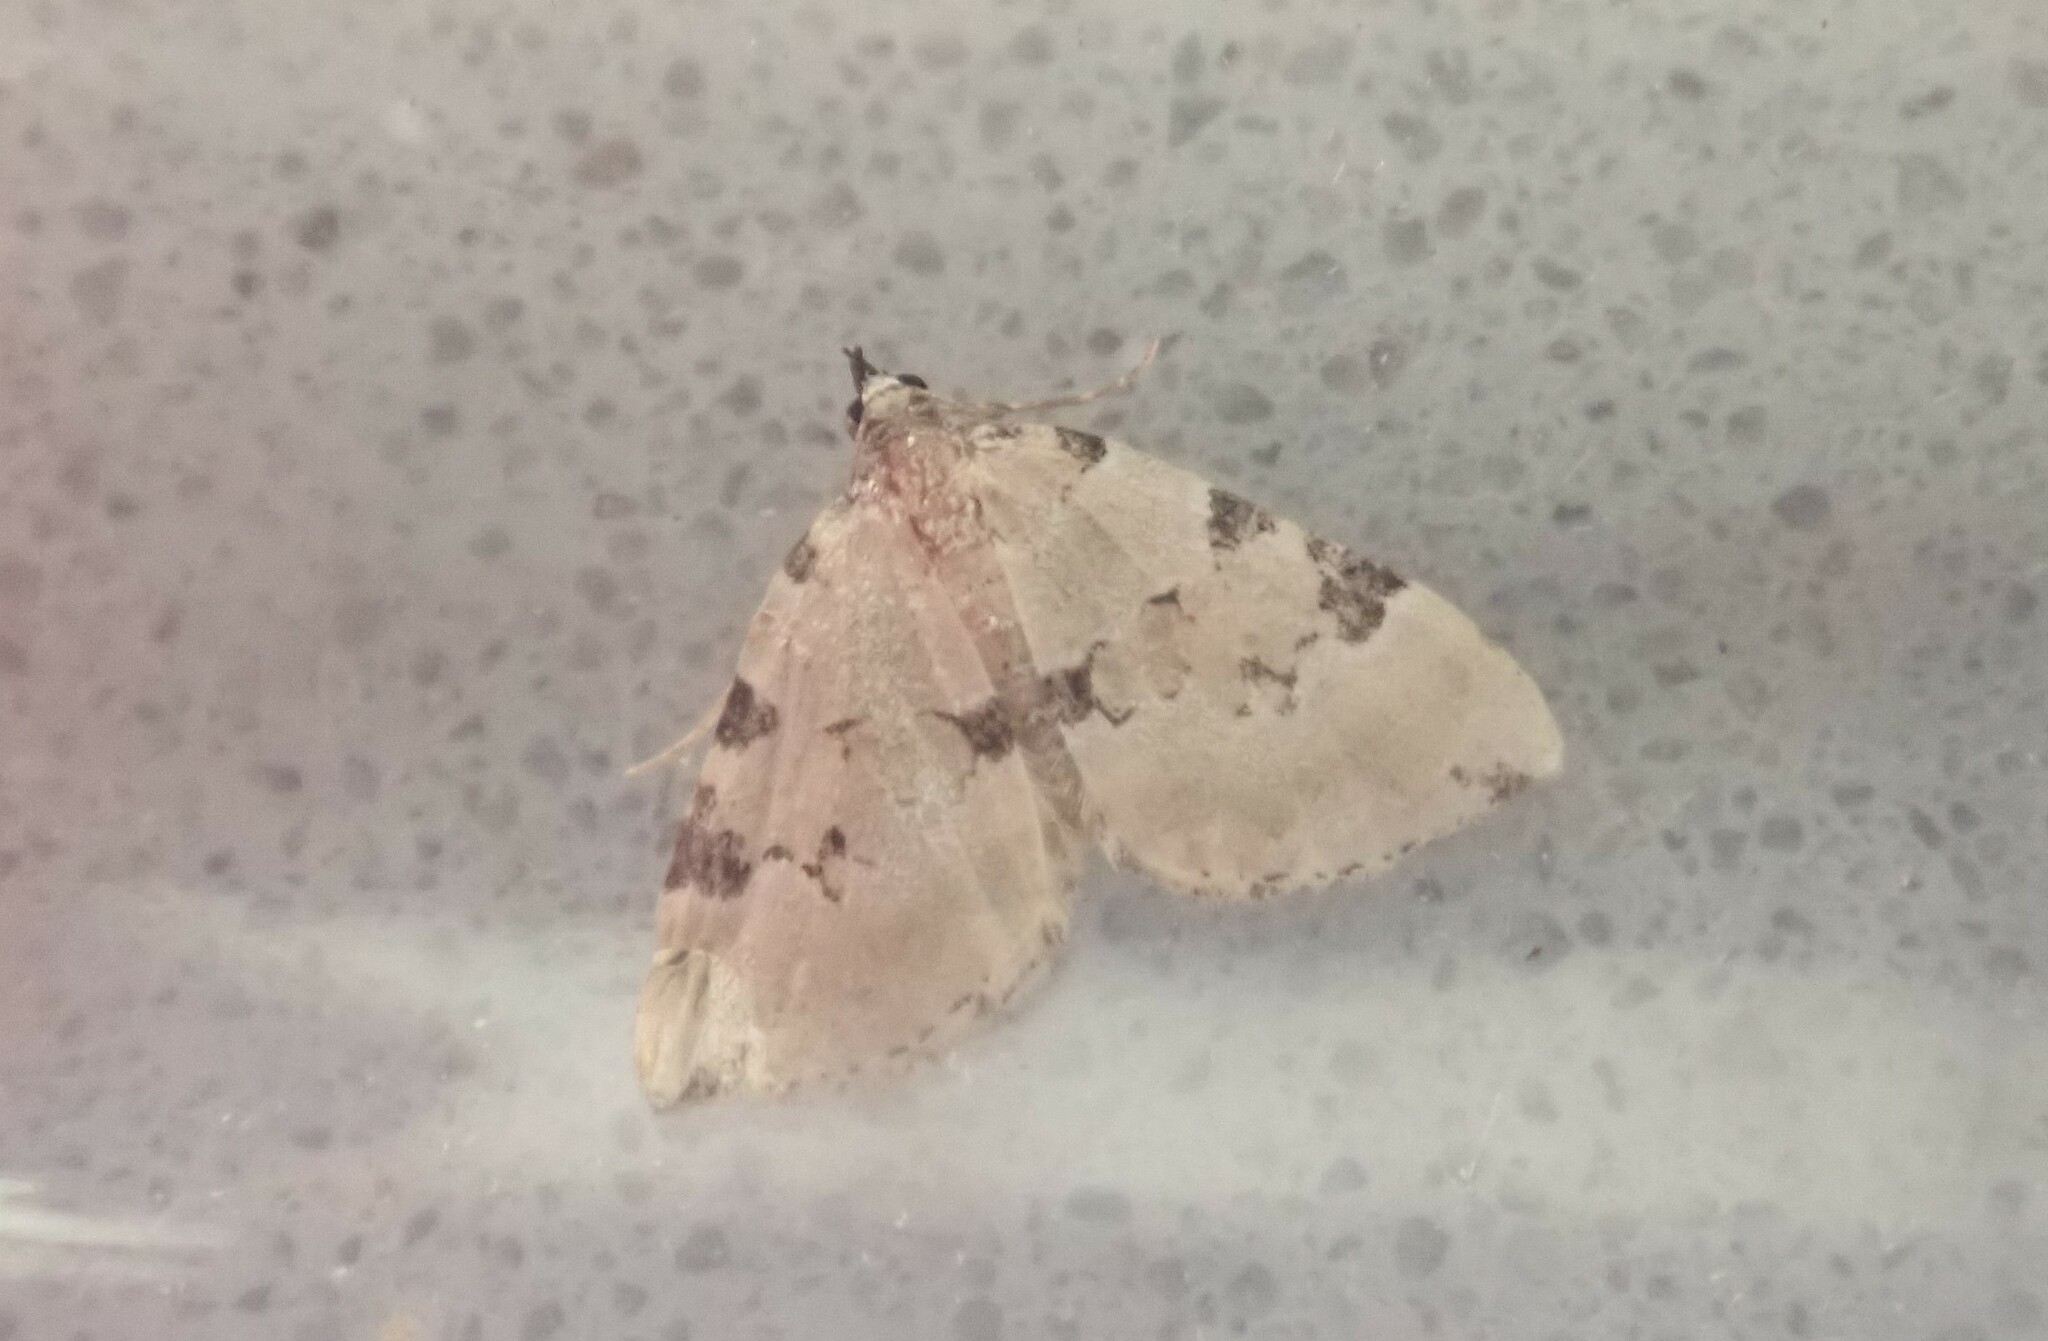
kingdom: Animalia
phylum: Arthropoda
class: Insecta
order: Lepidoptera
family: Geometridae
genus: Colostygia
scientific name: Colostygia pectinataria
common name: Green carpet
